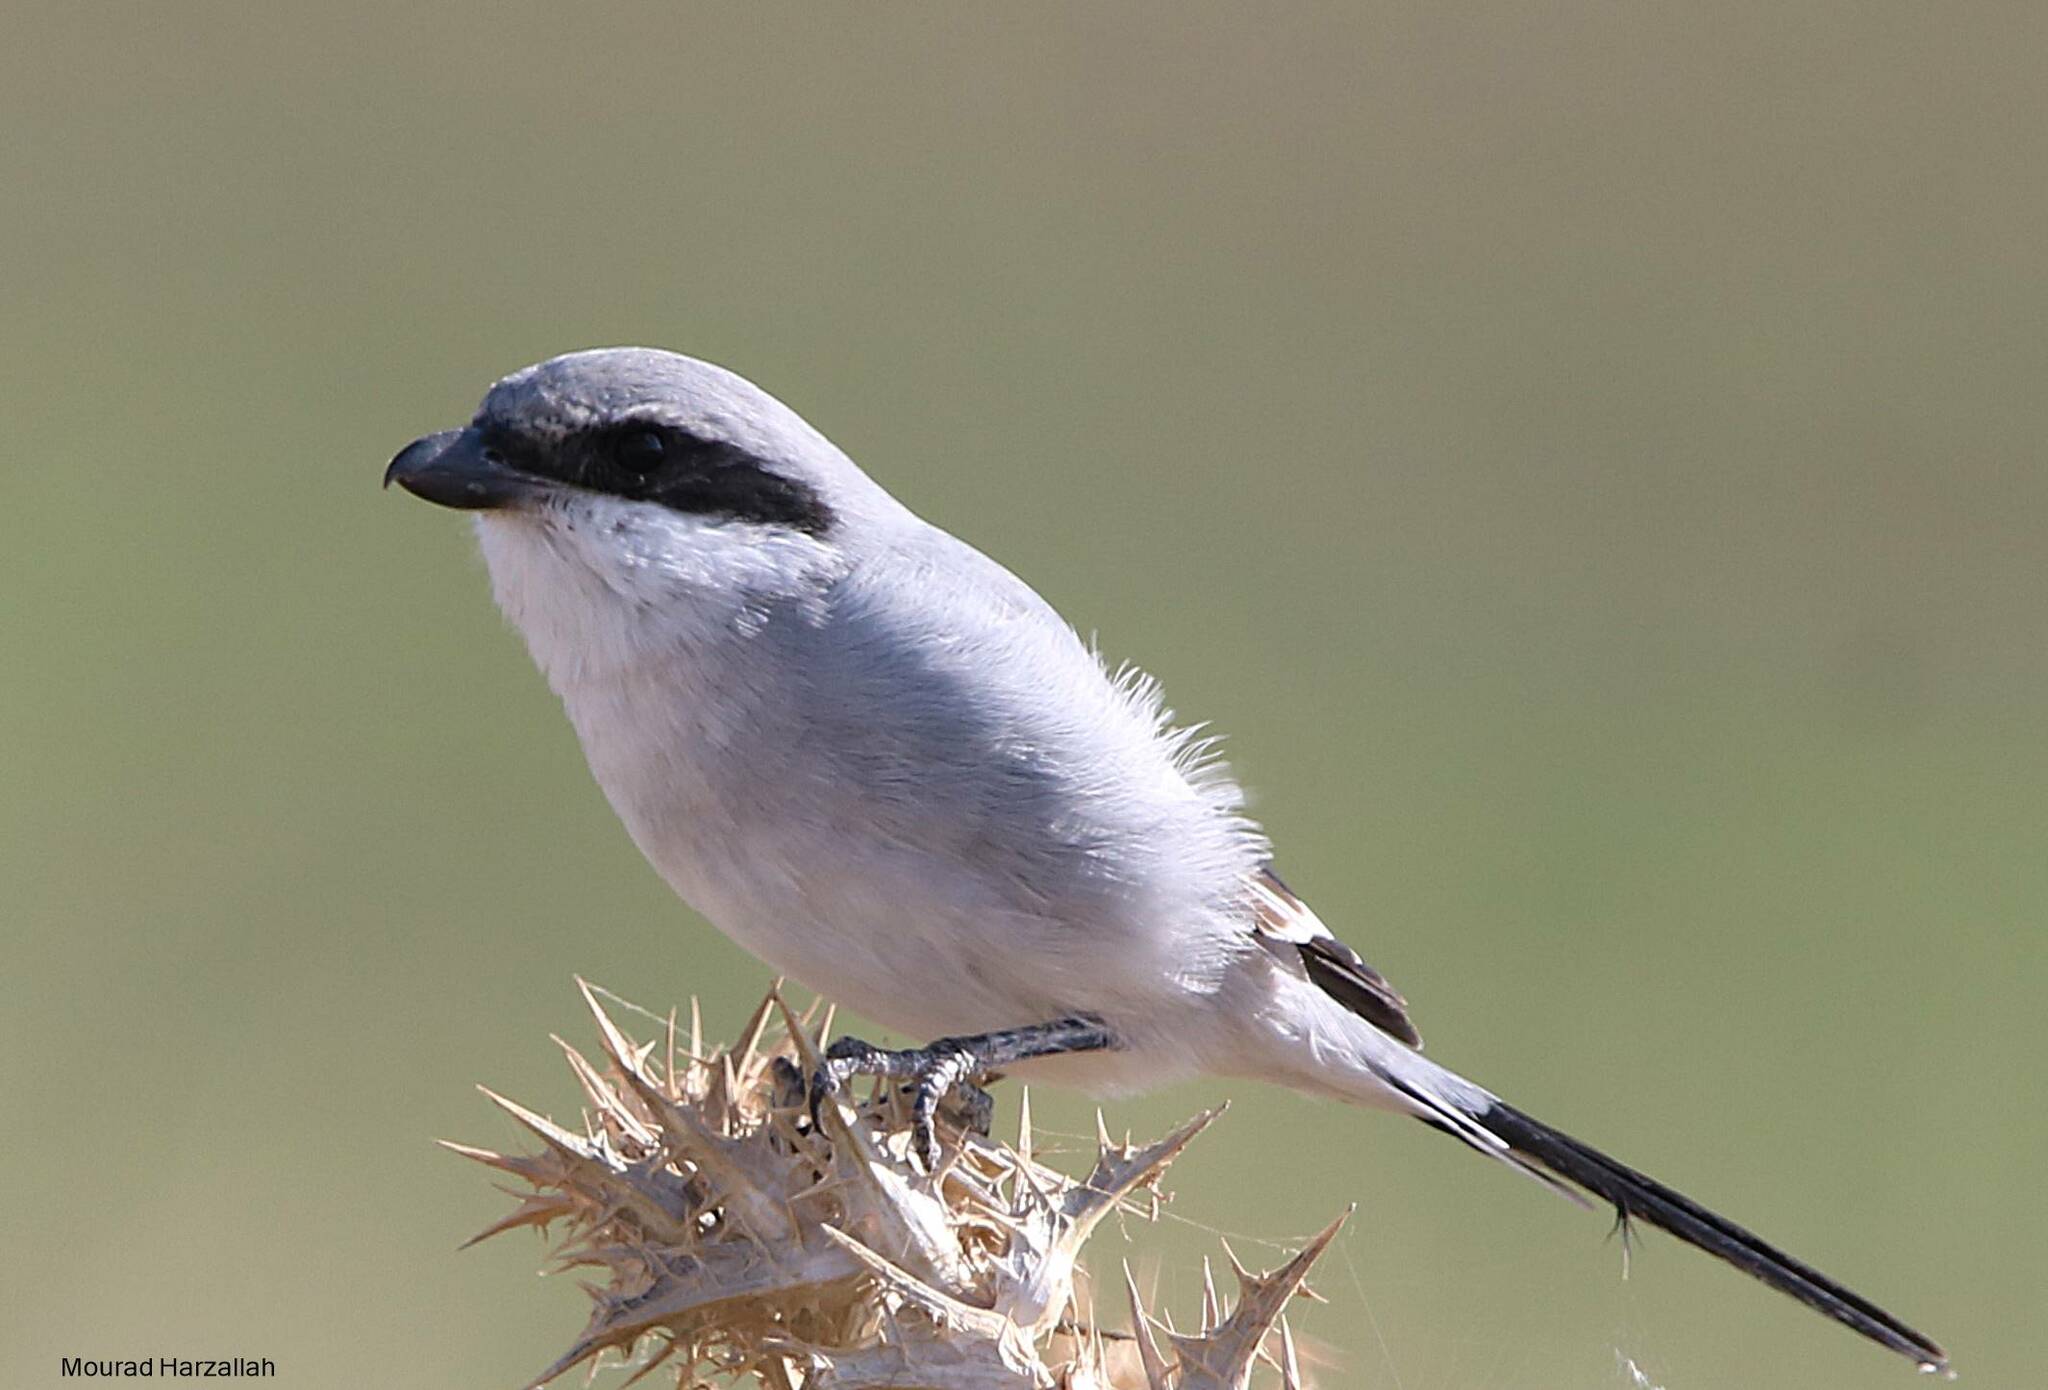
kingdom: Animalia
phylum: Chordata
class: Aves
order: Passeriformes
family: Laniidae
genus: Lanius
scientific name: Lanius excubitor
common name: Great grey shrike
